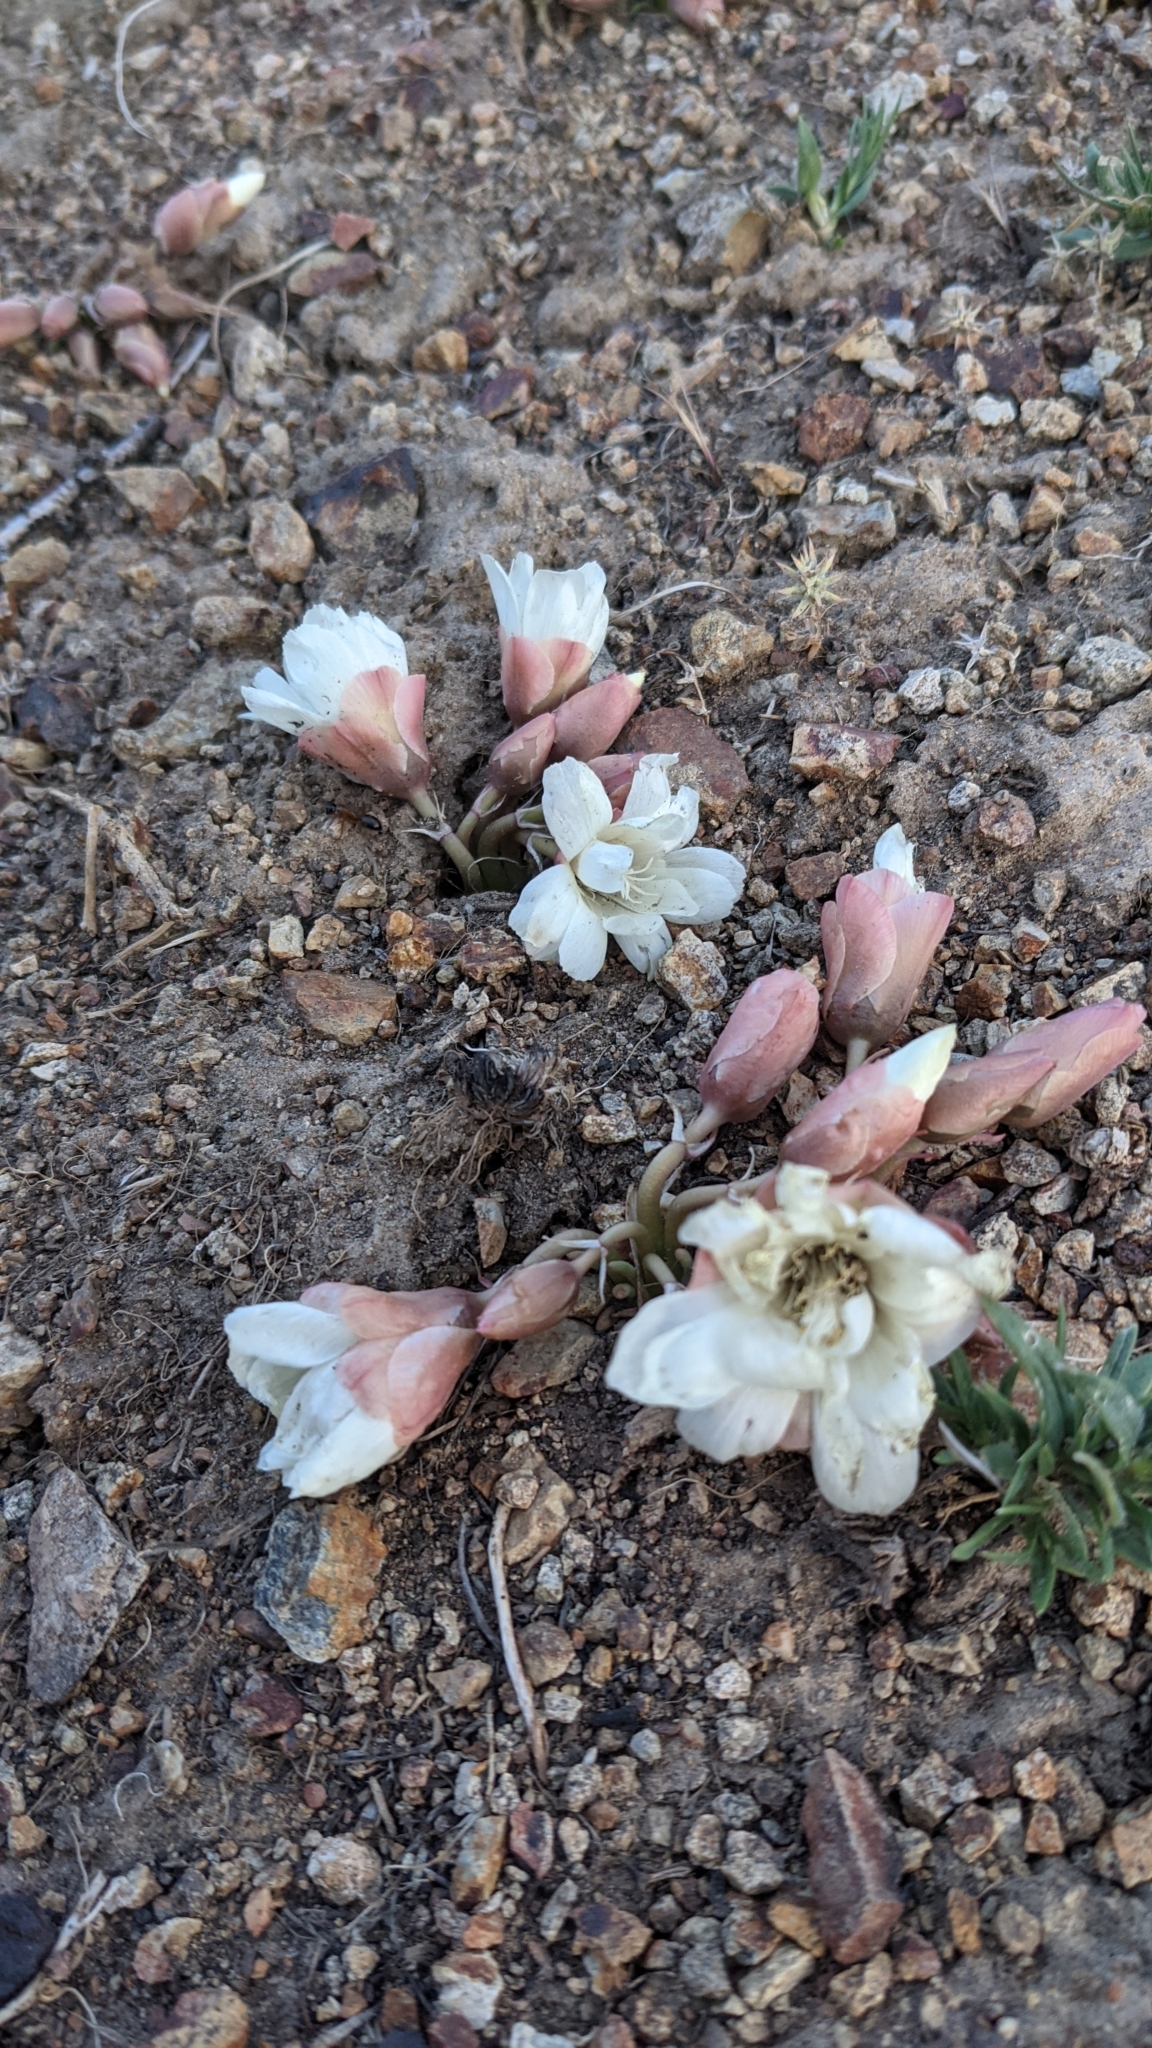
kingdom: Plantae
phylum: Tracheophyta
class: Magnoliopsida
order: Caryophyllales
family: Montiaceae
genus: Lewisia
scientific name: Lewisia rediviva
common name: Bitter-root
